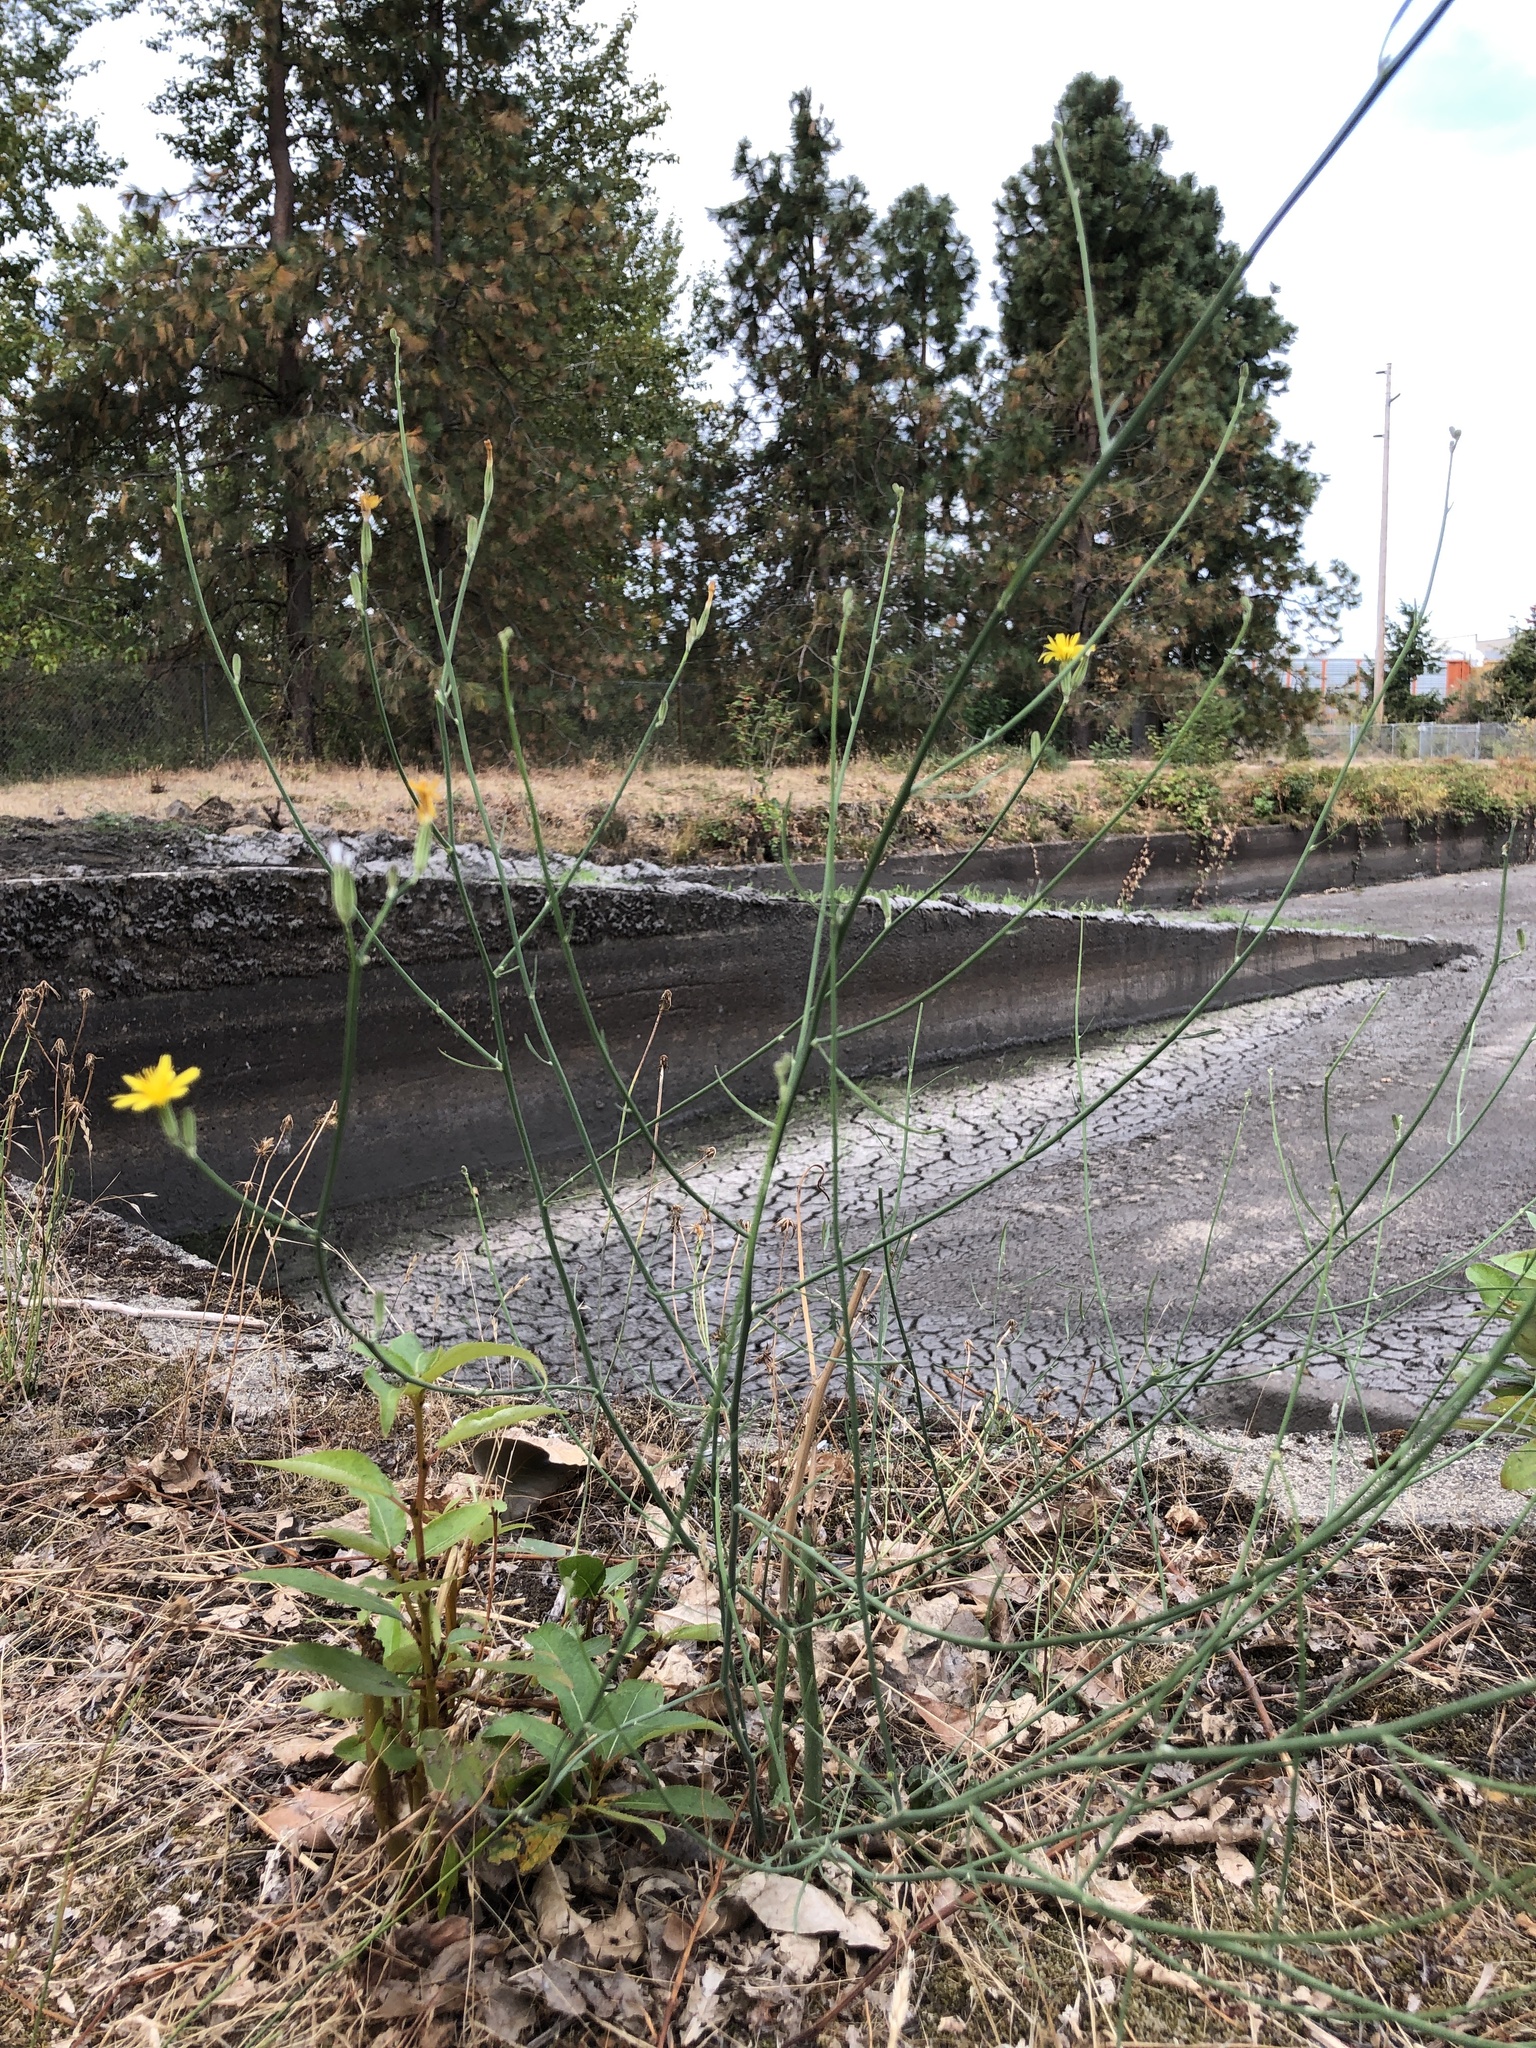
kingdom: Plantae
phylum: Tracheophyta
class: Magnoliopsida
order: Asterales
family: Asteraceae
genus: Chondrilla
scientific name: Chondrilla juncea
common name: Skeleton weed
